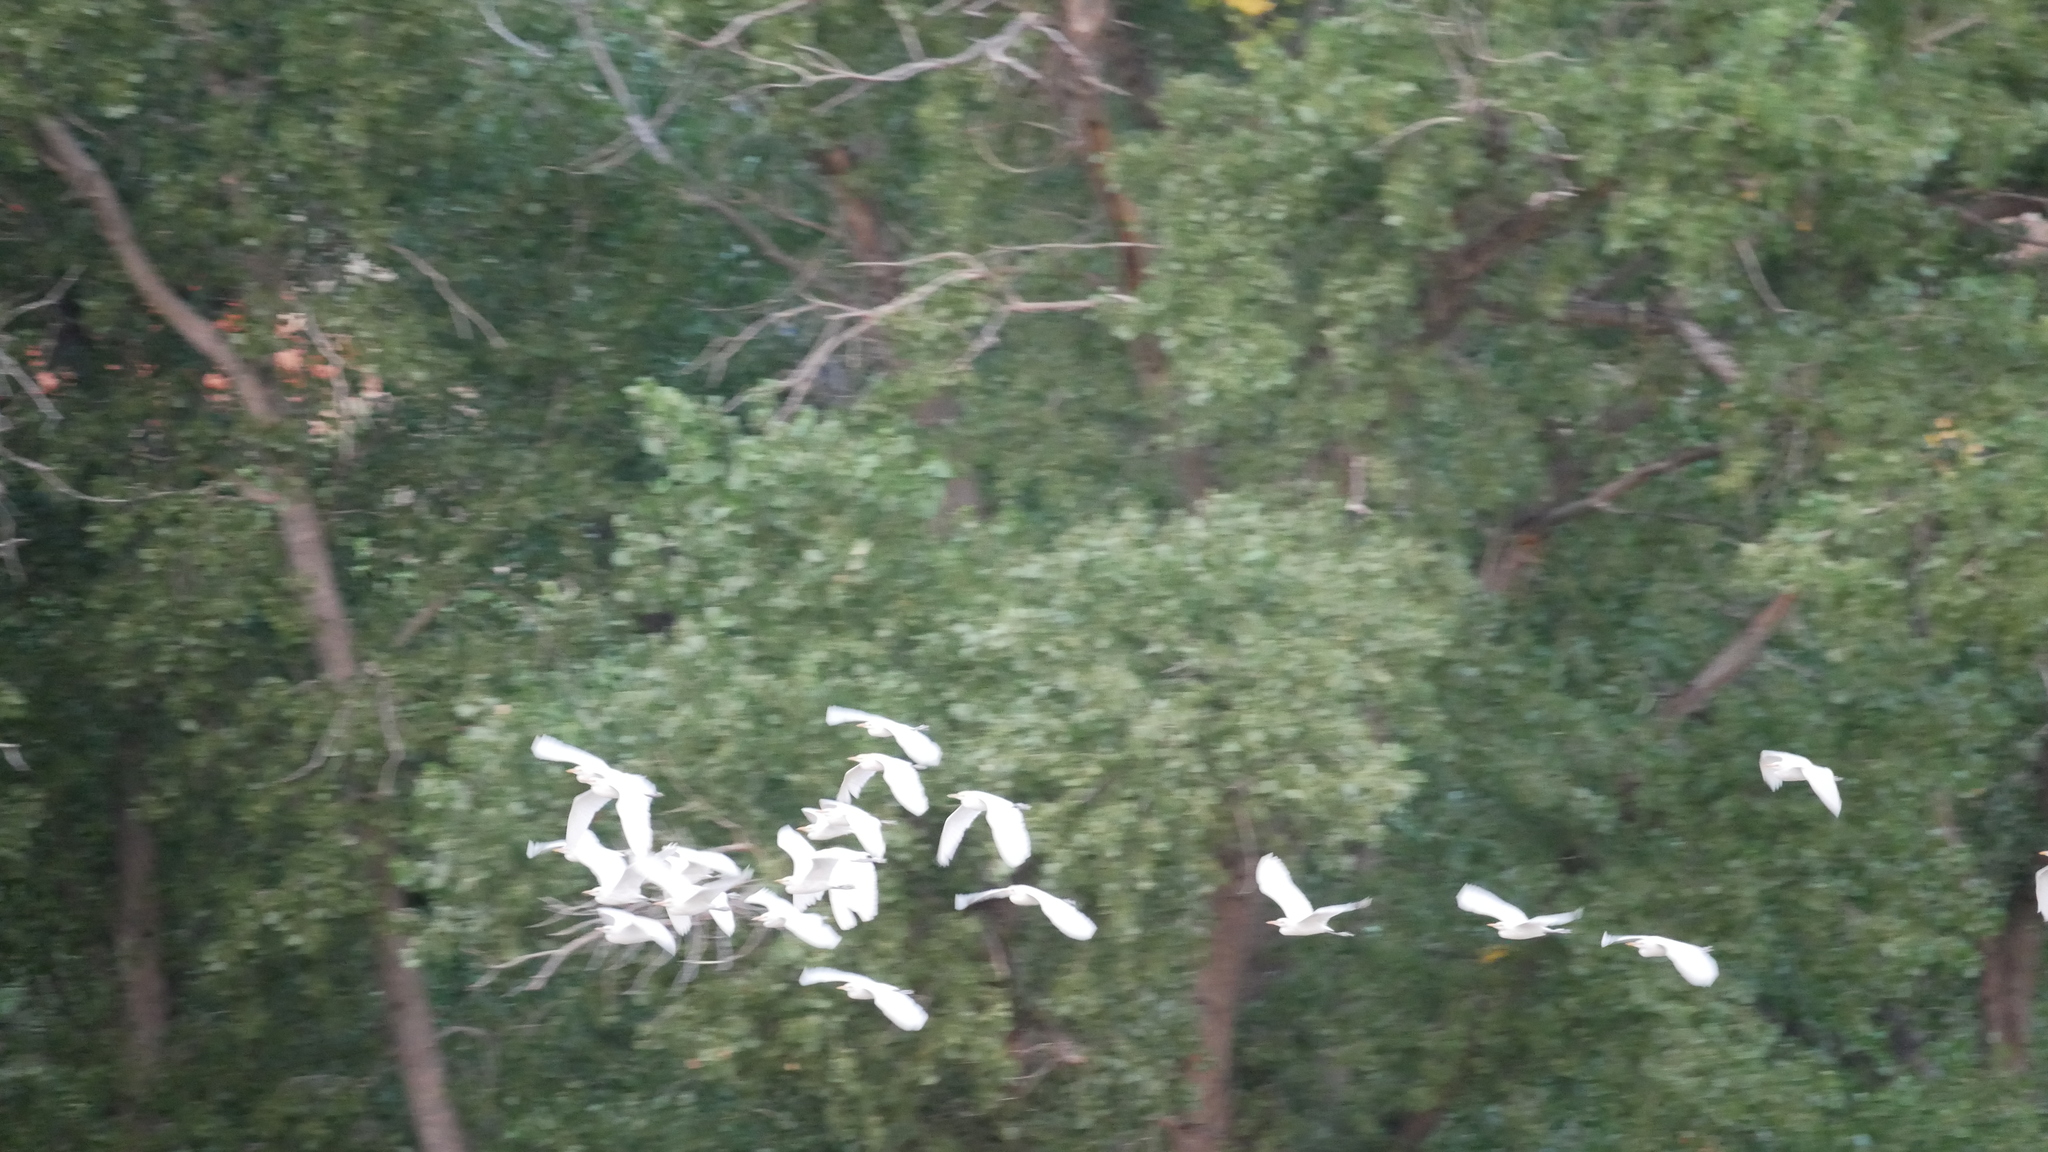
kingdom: Animalia
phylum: Chordata
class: Aves
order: Pelecaniformes
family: Ardeidae
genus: Bubulcus
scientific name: Bubulcus ibis
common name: Cattle egret
